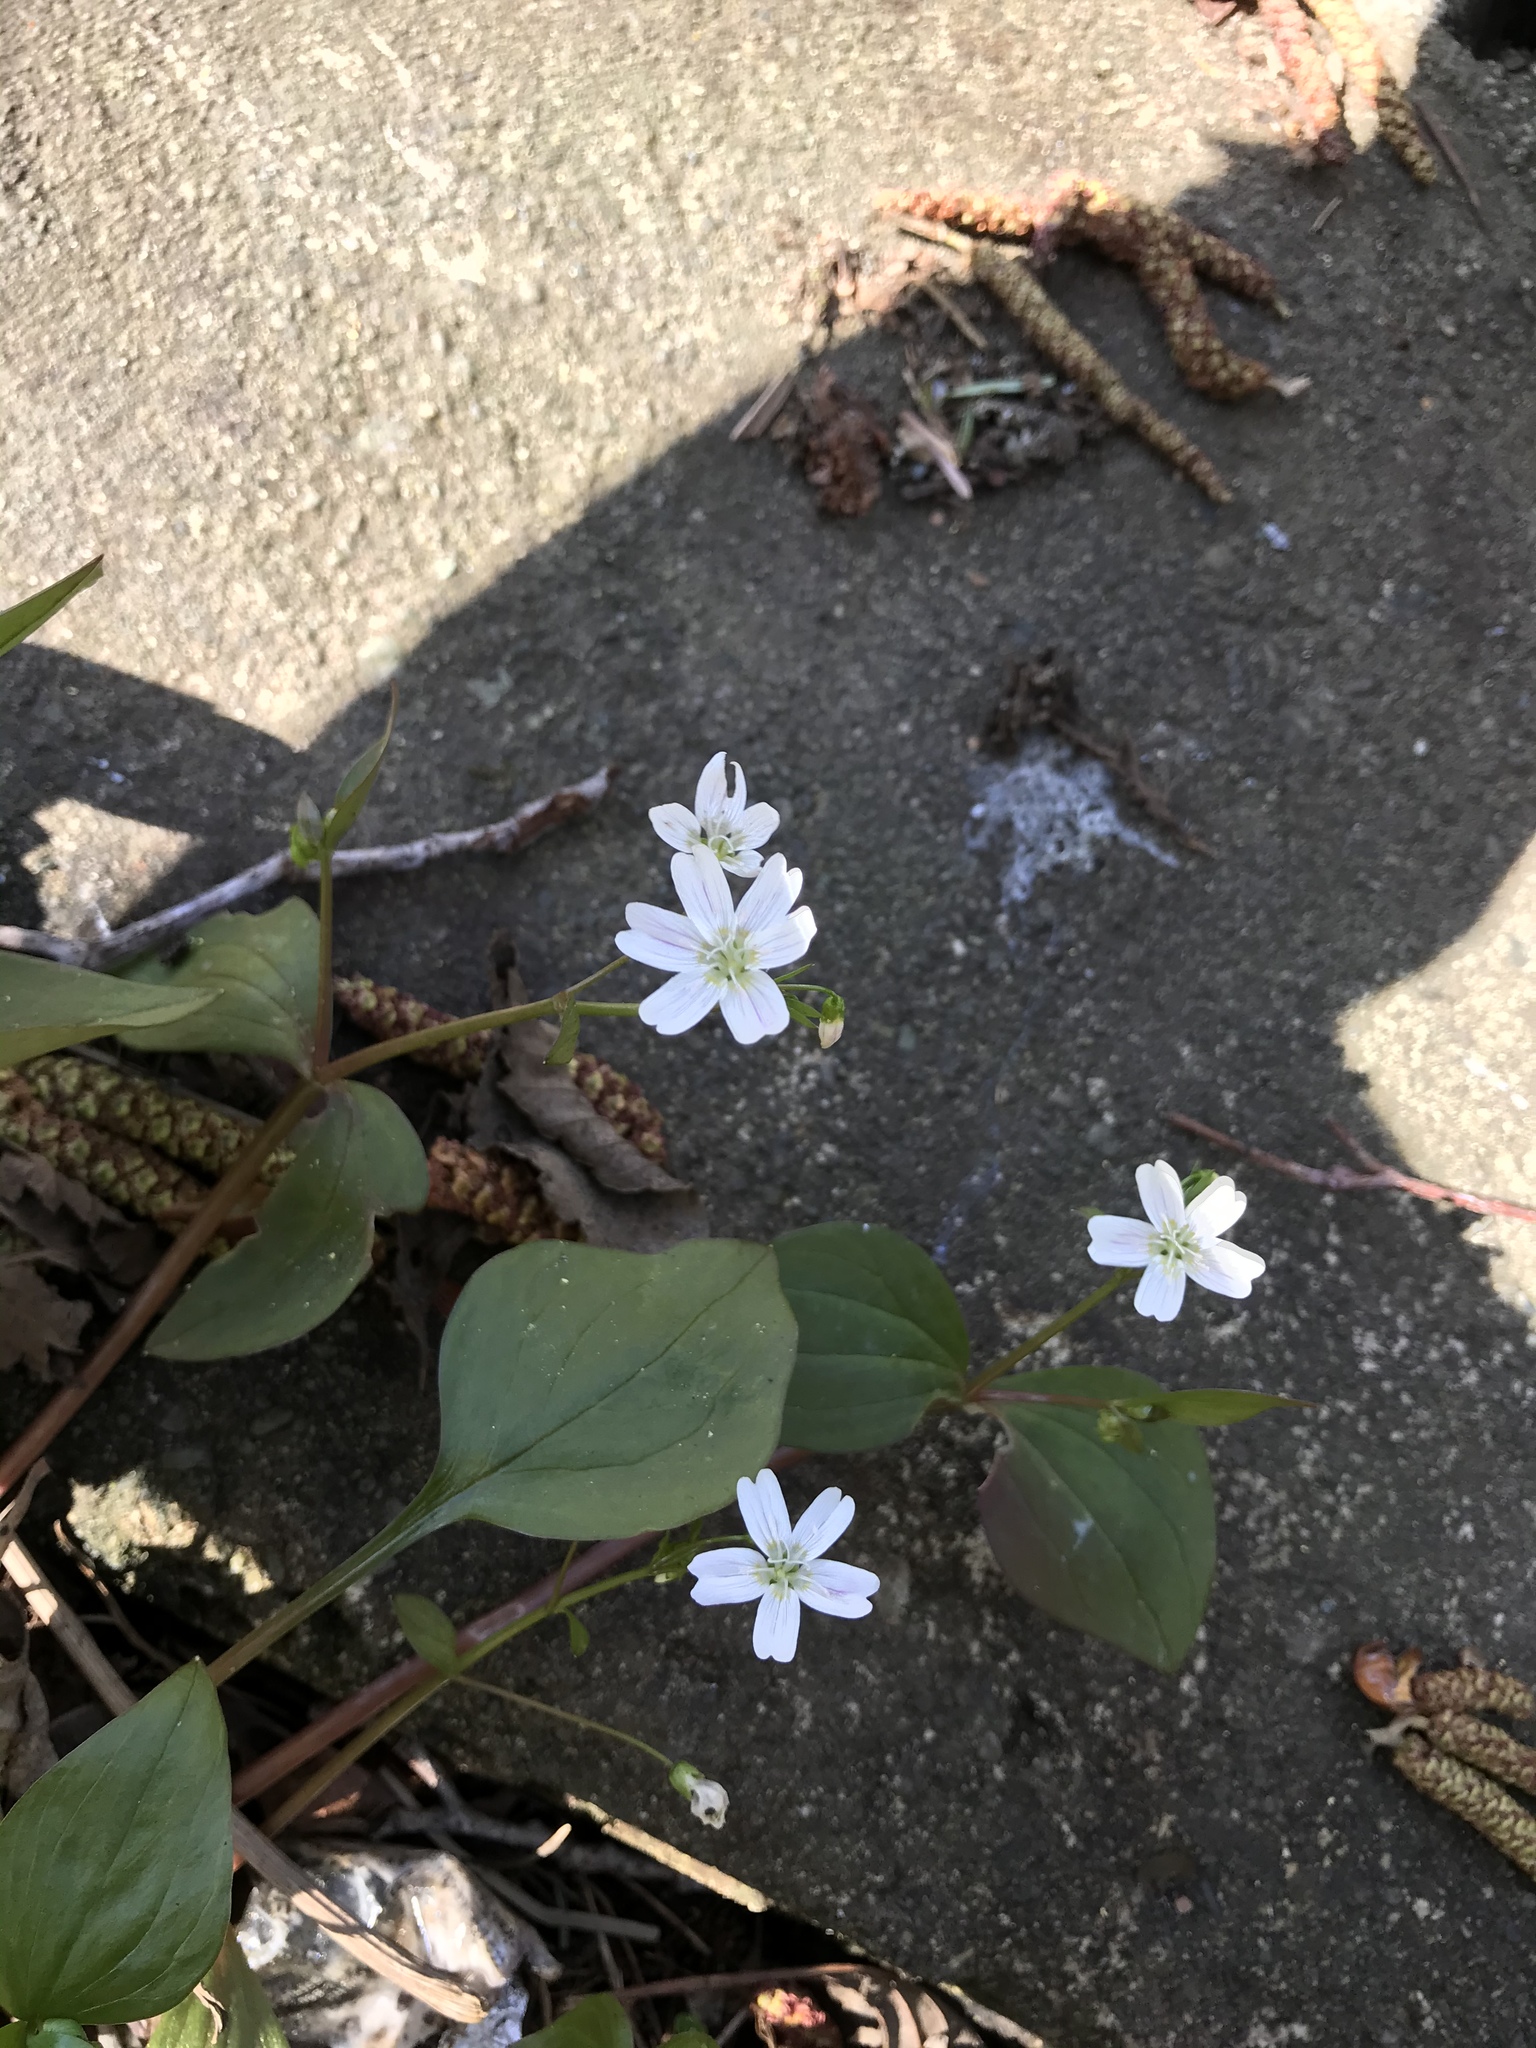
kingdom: Plantae
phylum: Tracheophyta
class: Magnoliopsida
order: Caryophyllales
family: Montiaceae
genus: Claytonia
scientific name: Claytonia sibirica
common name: Pink purslane
